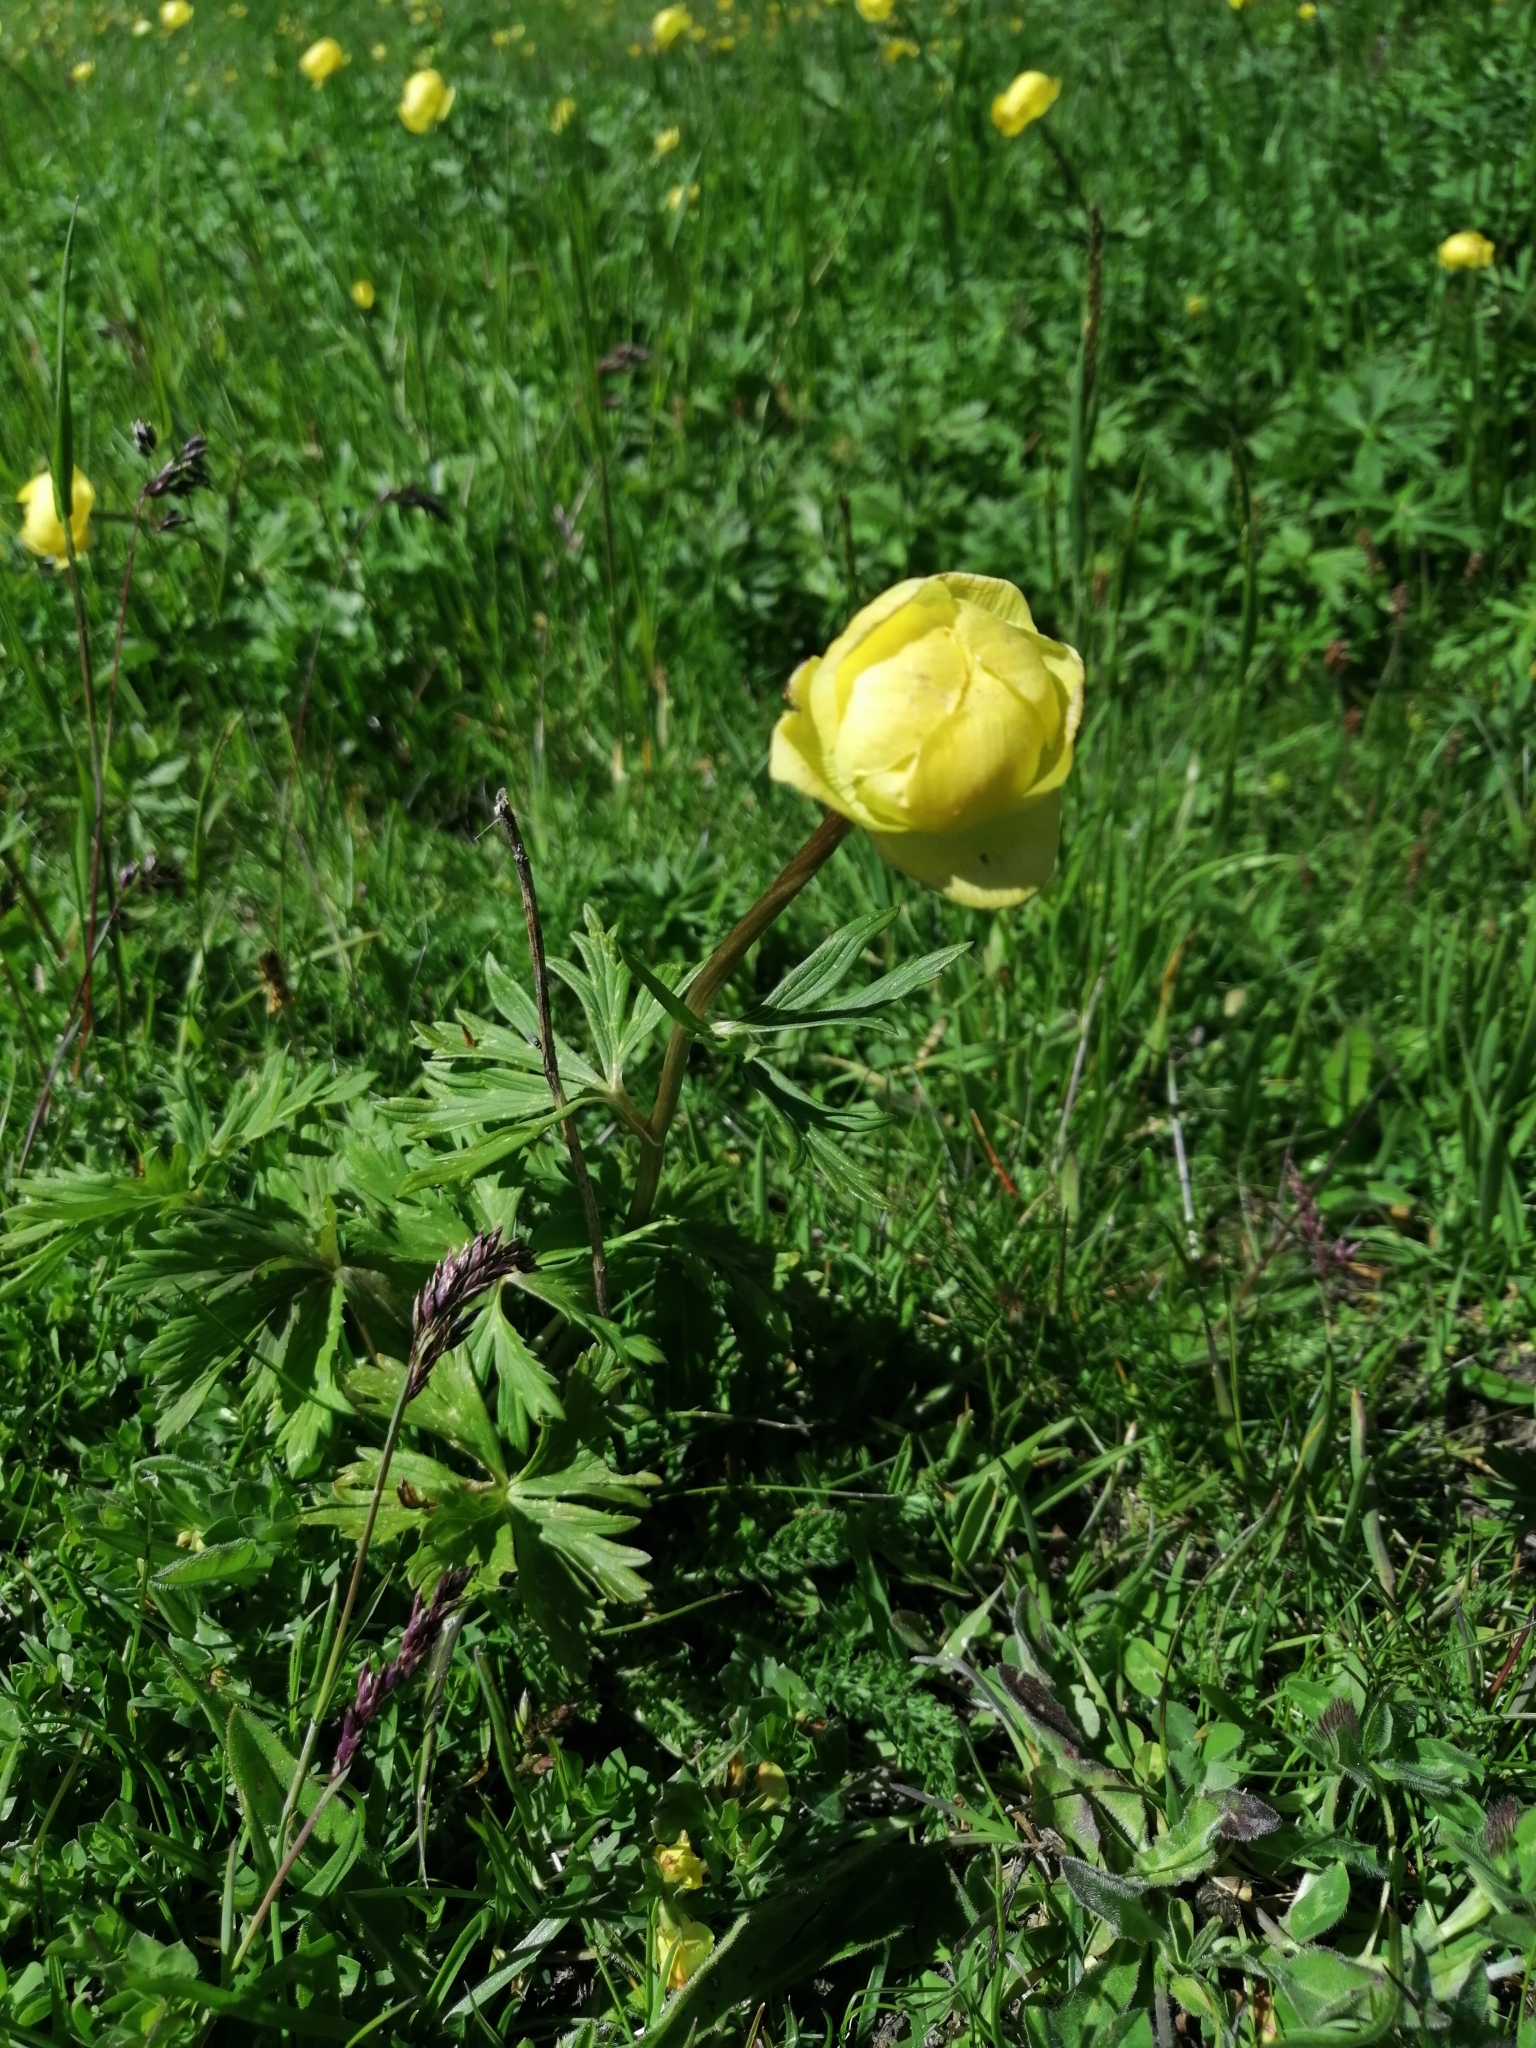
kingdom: Plantae
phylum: Tracheophyta
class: Magnoliopsida
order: Ranunculales
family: Ranunculaceae
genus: Trollius
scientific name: Trollius europaeus
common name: European globeflower
